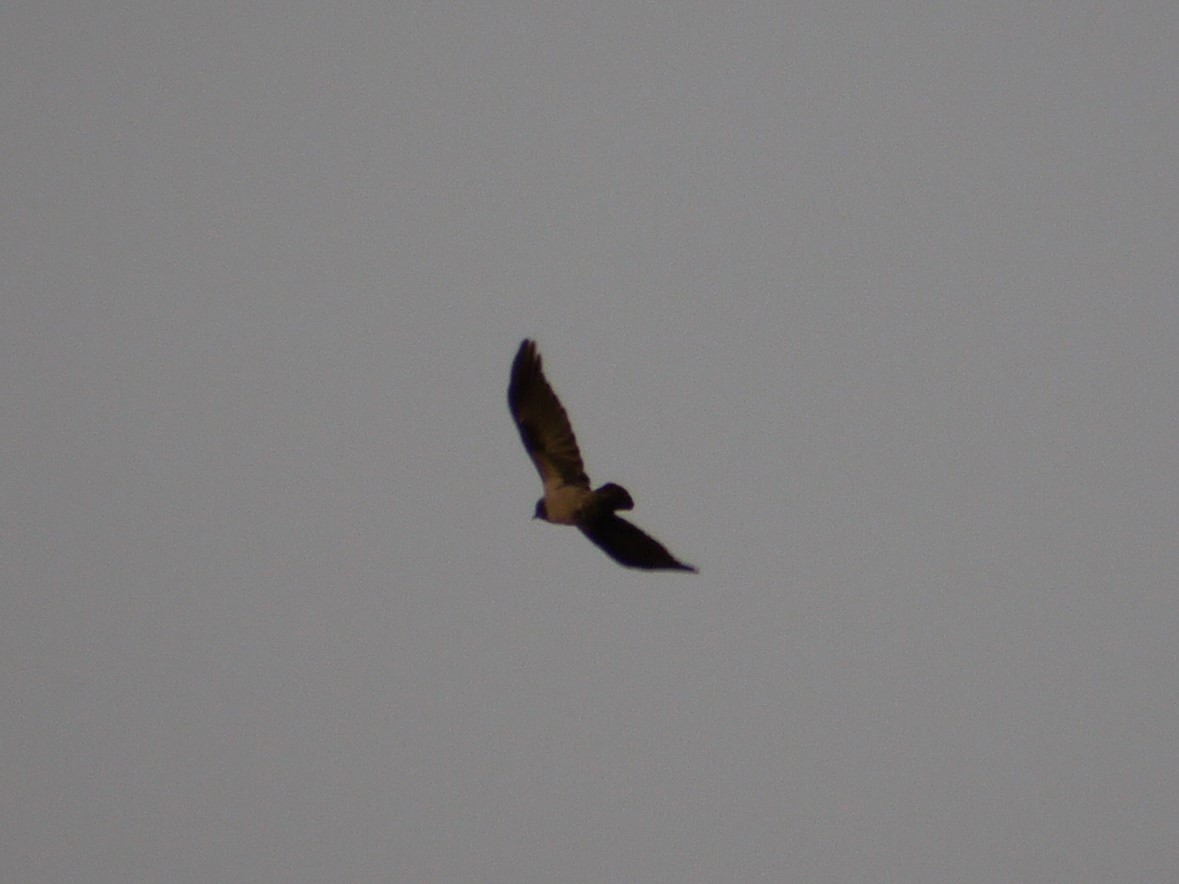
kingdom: Animalia
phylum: Chordata
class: Aves
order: Passeriformes
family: Corvidae
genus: Corvus
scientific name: Corvus cornix
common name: Hooded crow
